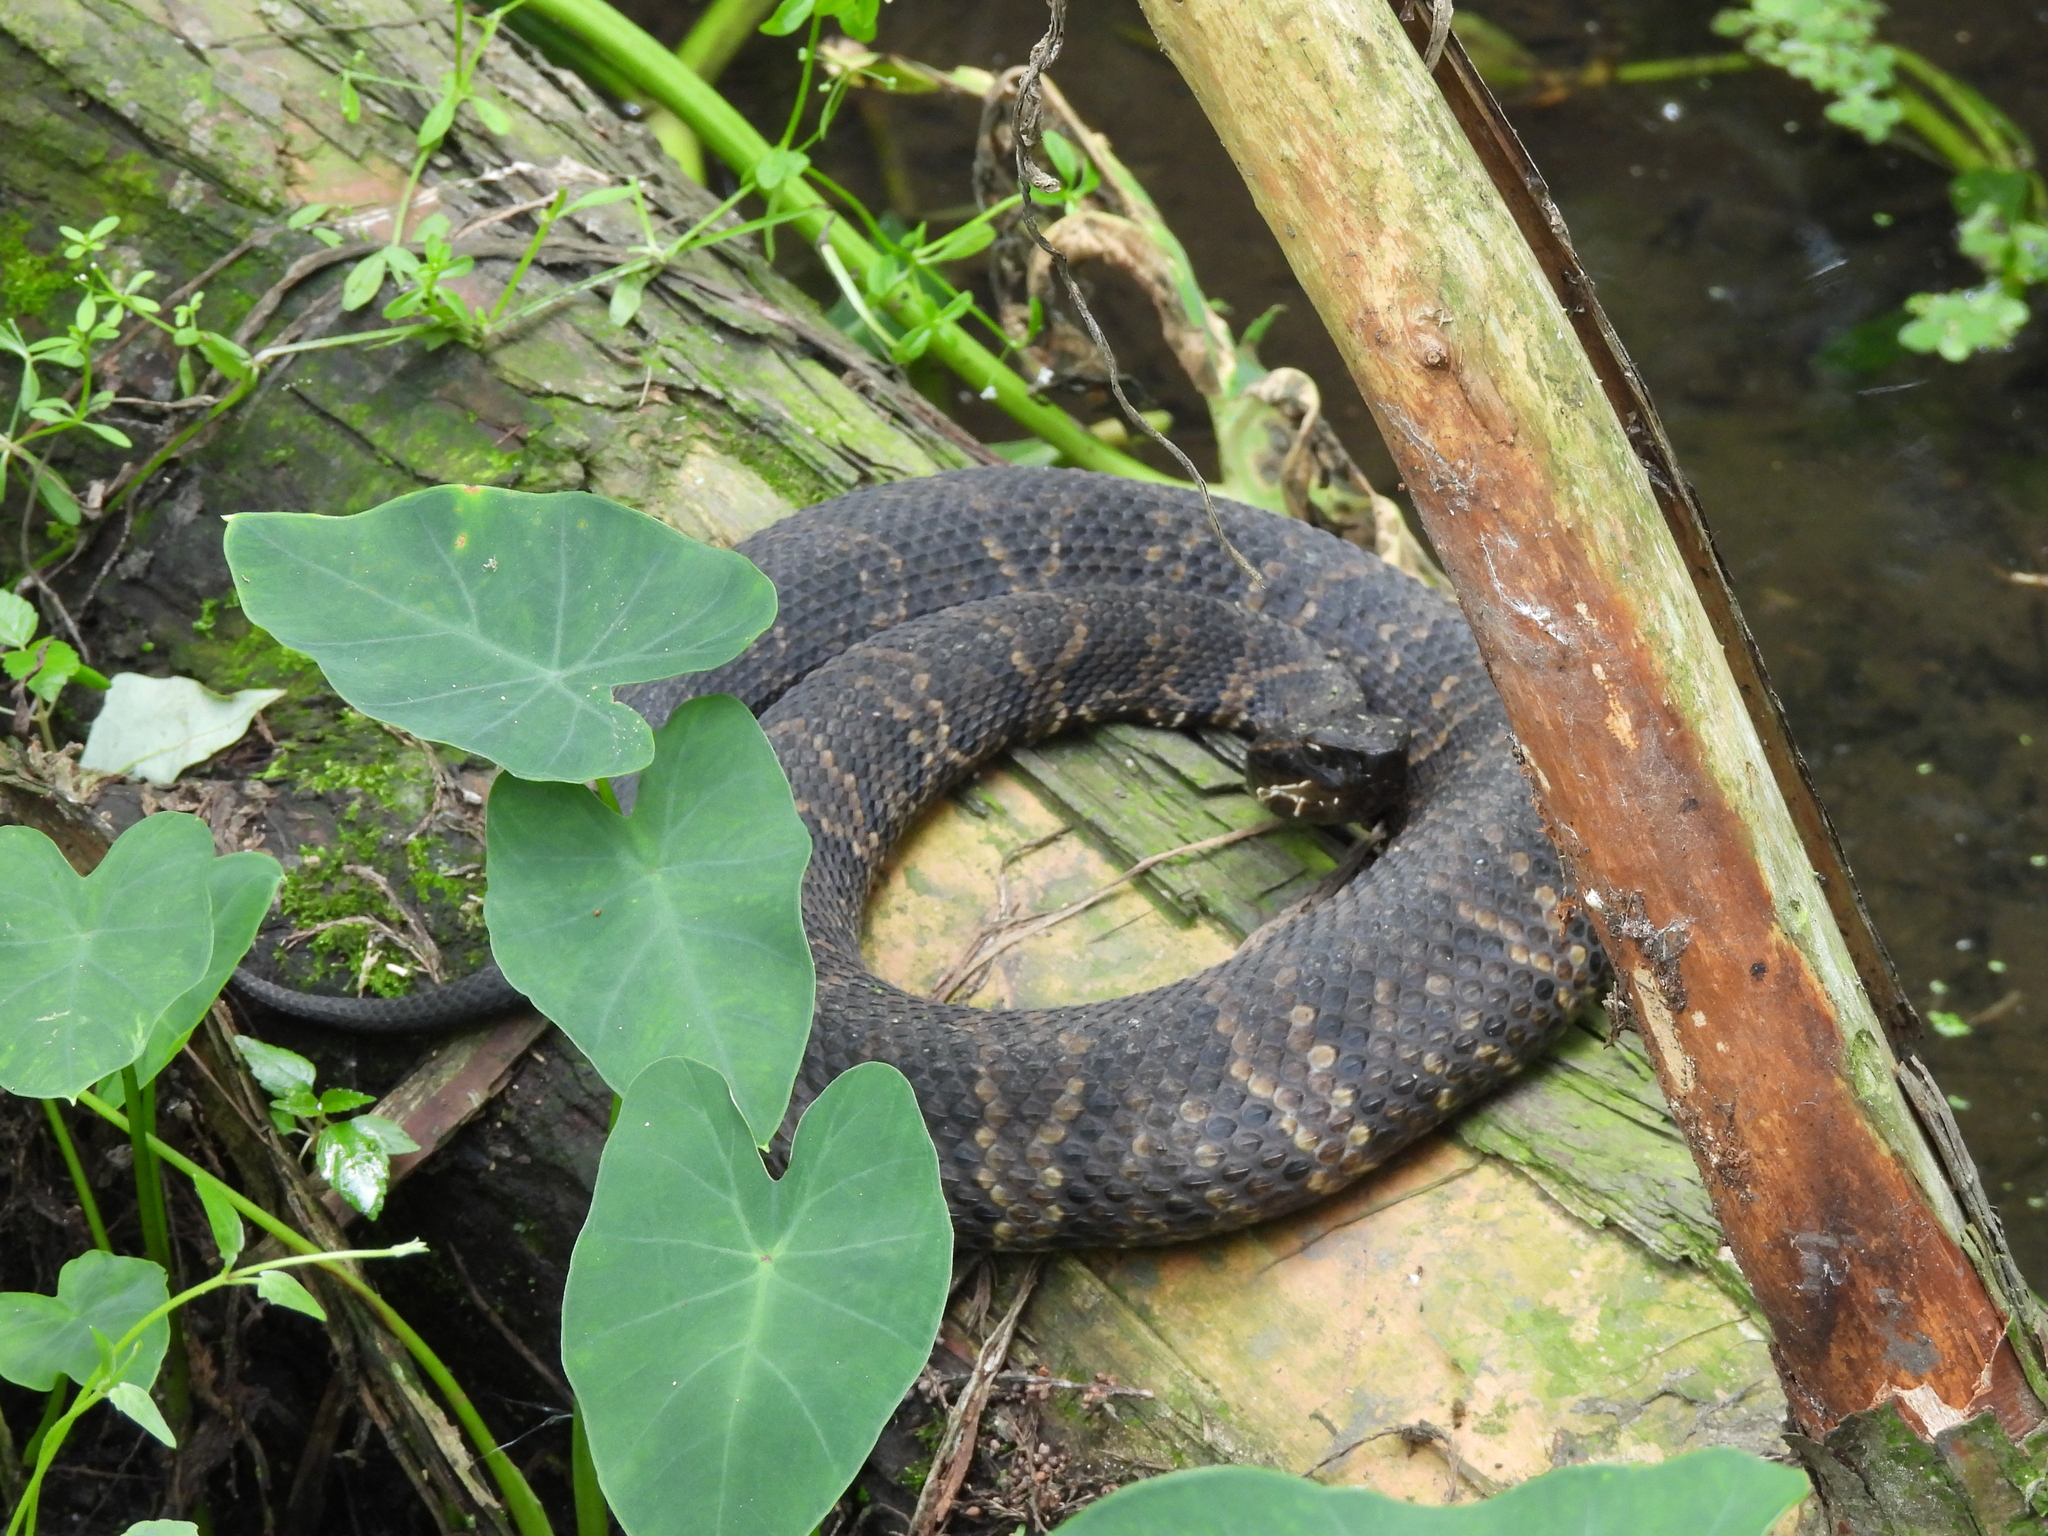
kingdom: Animalia
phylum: Chordata
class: Squamata
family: Viperidae
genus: Agkistrodon
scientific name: Agkistrodon piscivorus
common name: Cottonmouth
